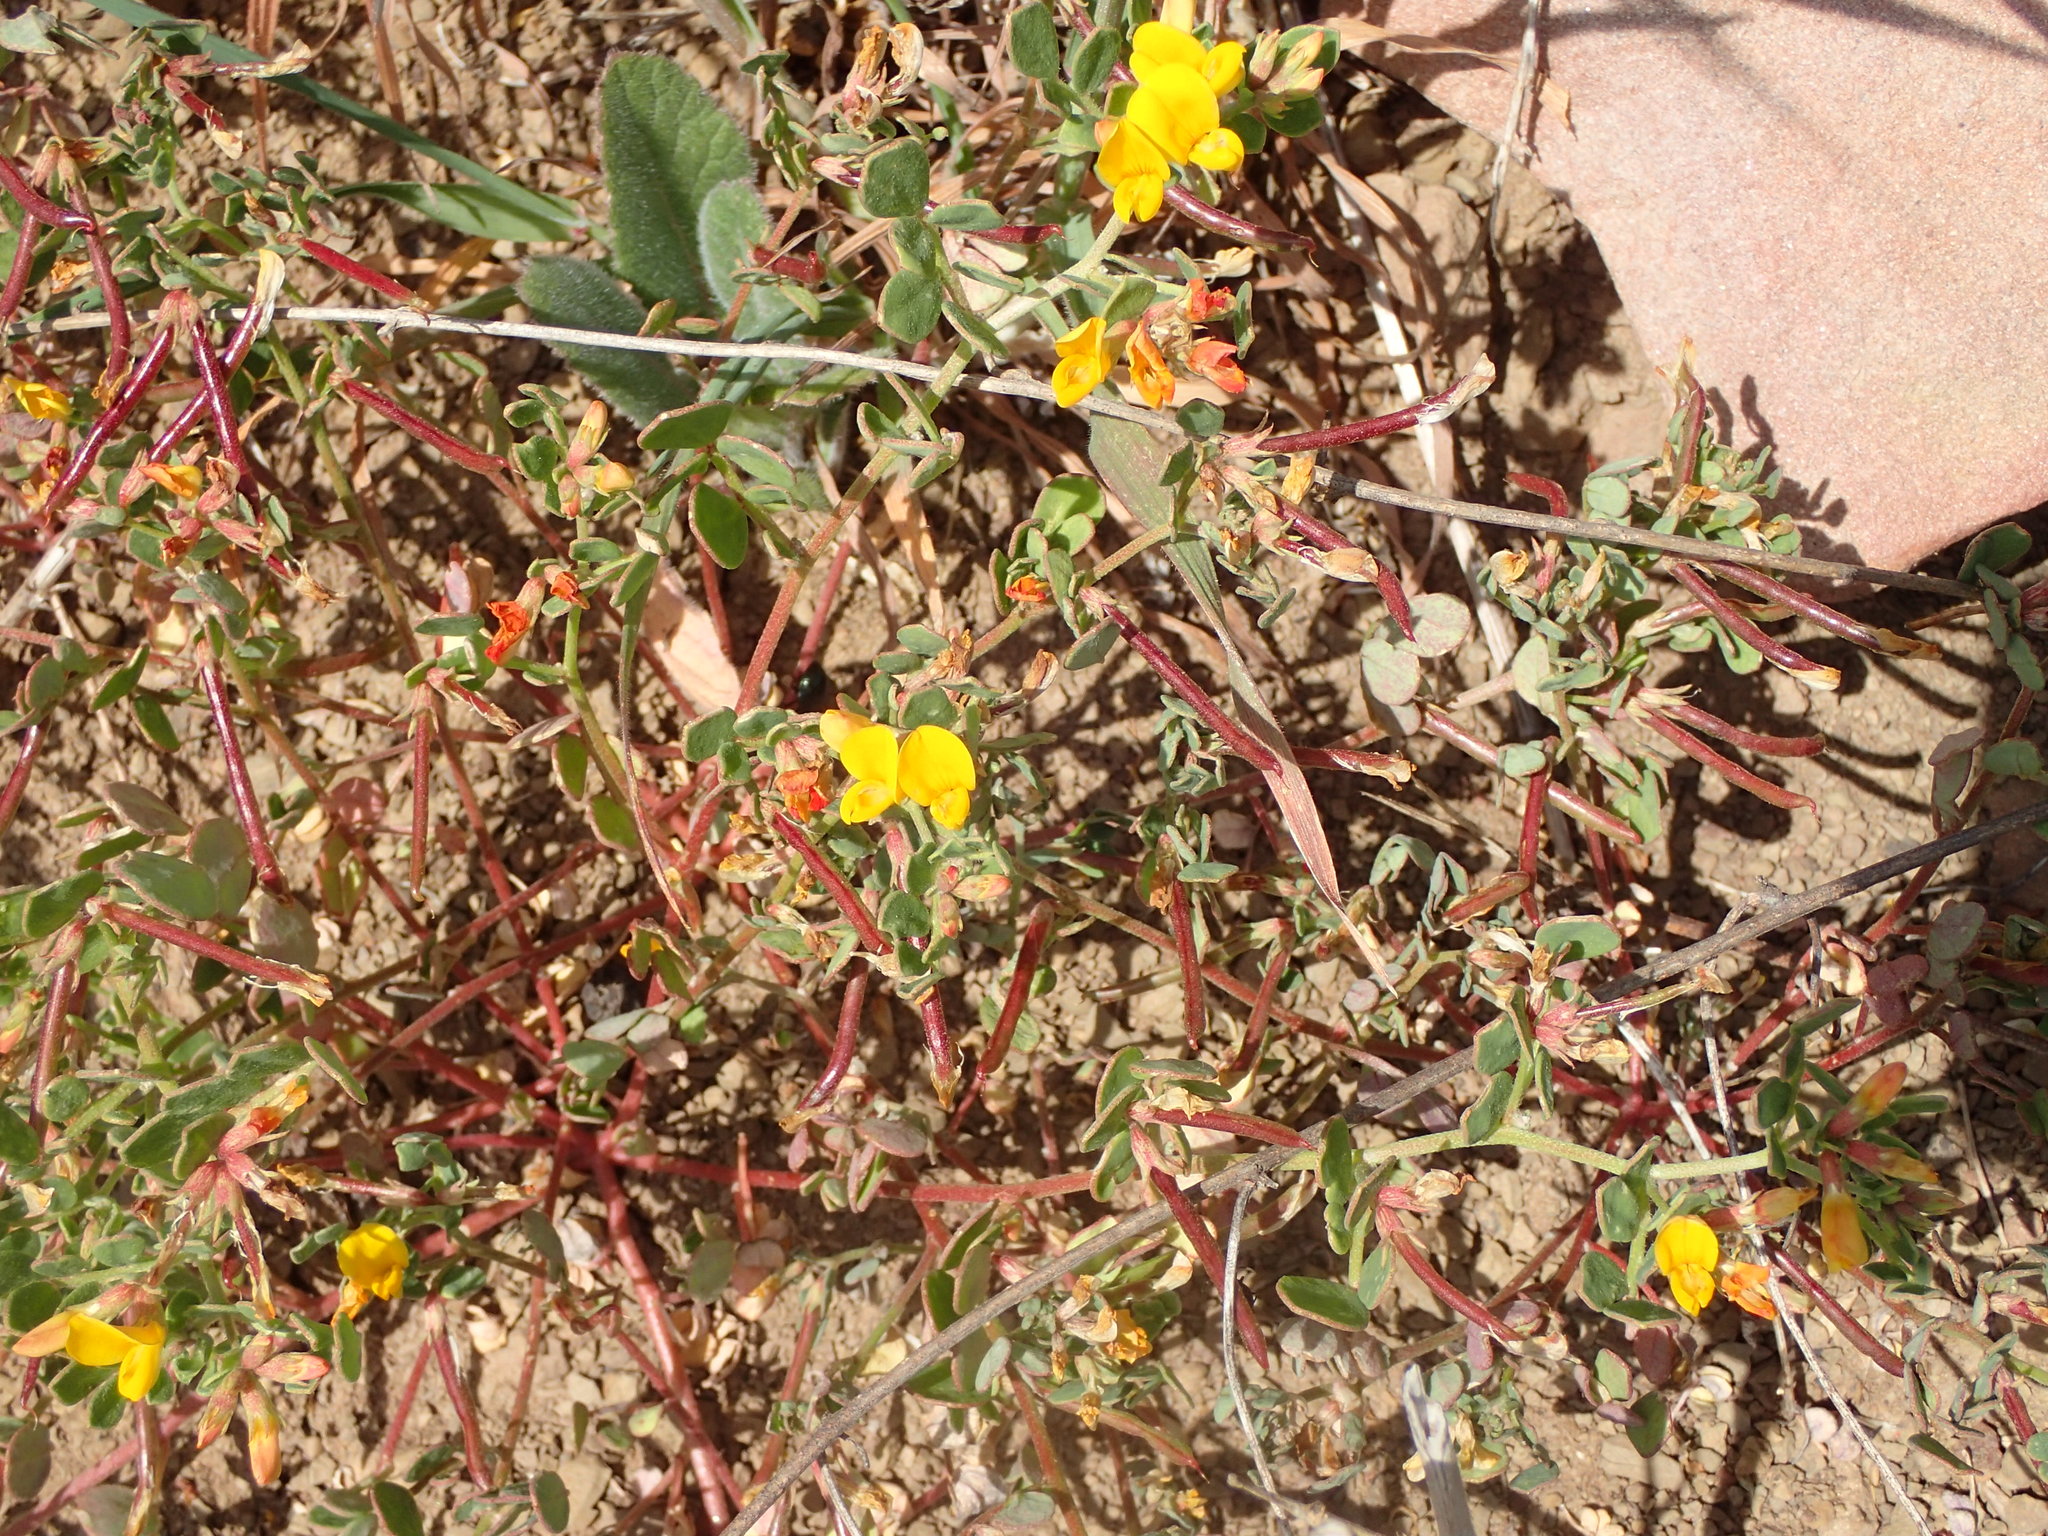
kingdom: Plantae
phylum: Tracheophyta
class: Magnoliopsida
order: Fabales
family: Fabaceae
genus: Acmispon
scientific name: Acmispon maritimus
